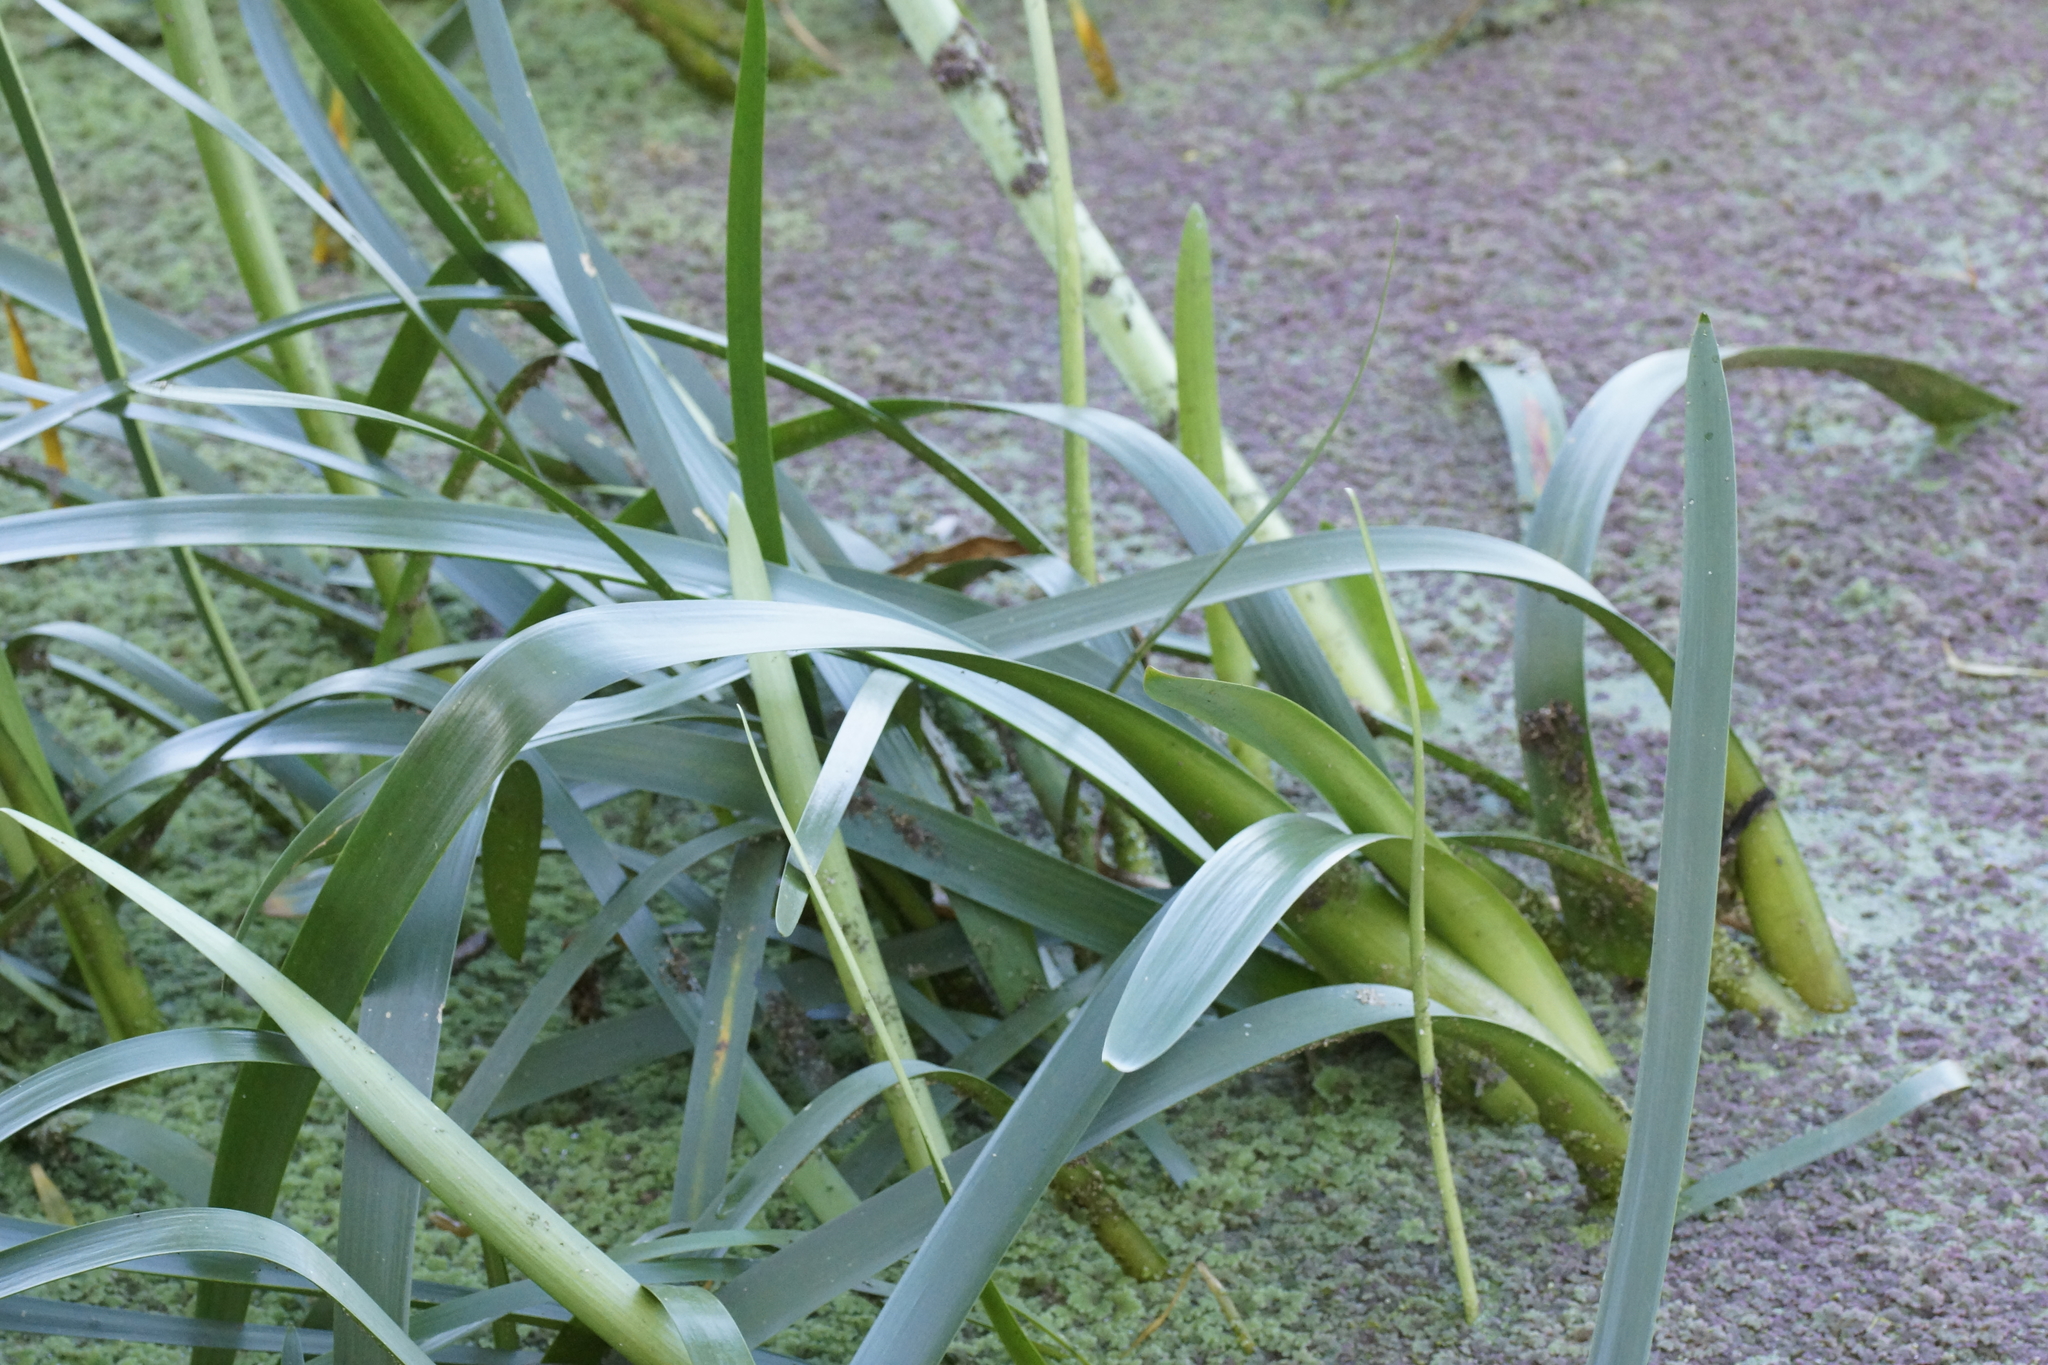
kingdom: Plantae
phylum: Tracheophyta
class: Liliopsida
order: Alismatales
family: Juncaginaceae
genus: Cycnogeton
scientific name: Cycnogeton procerum
